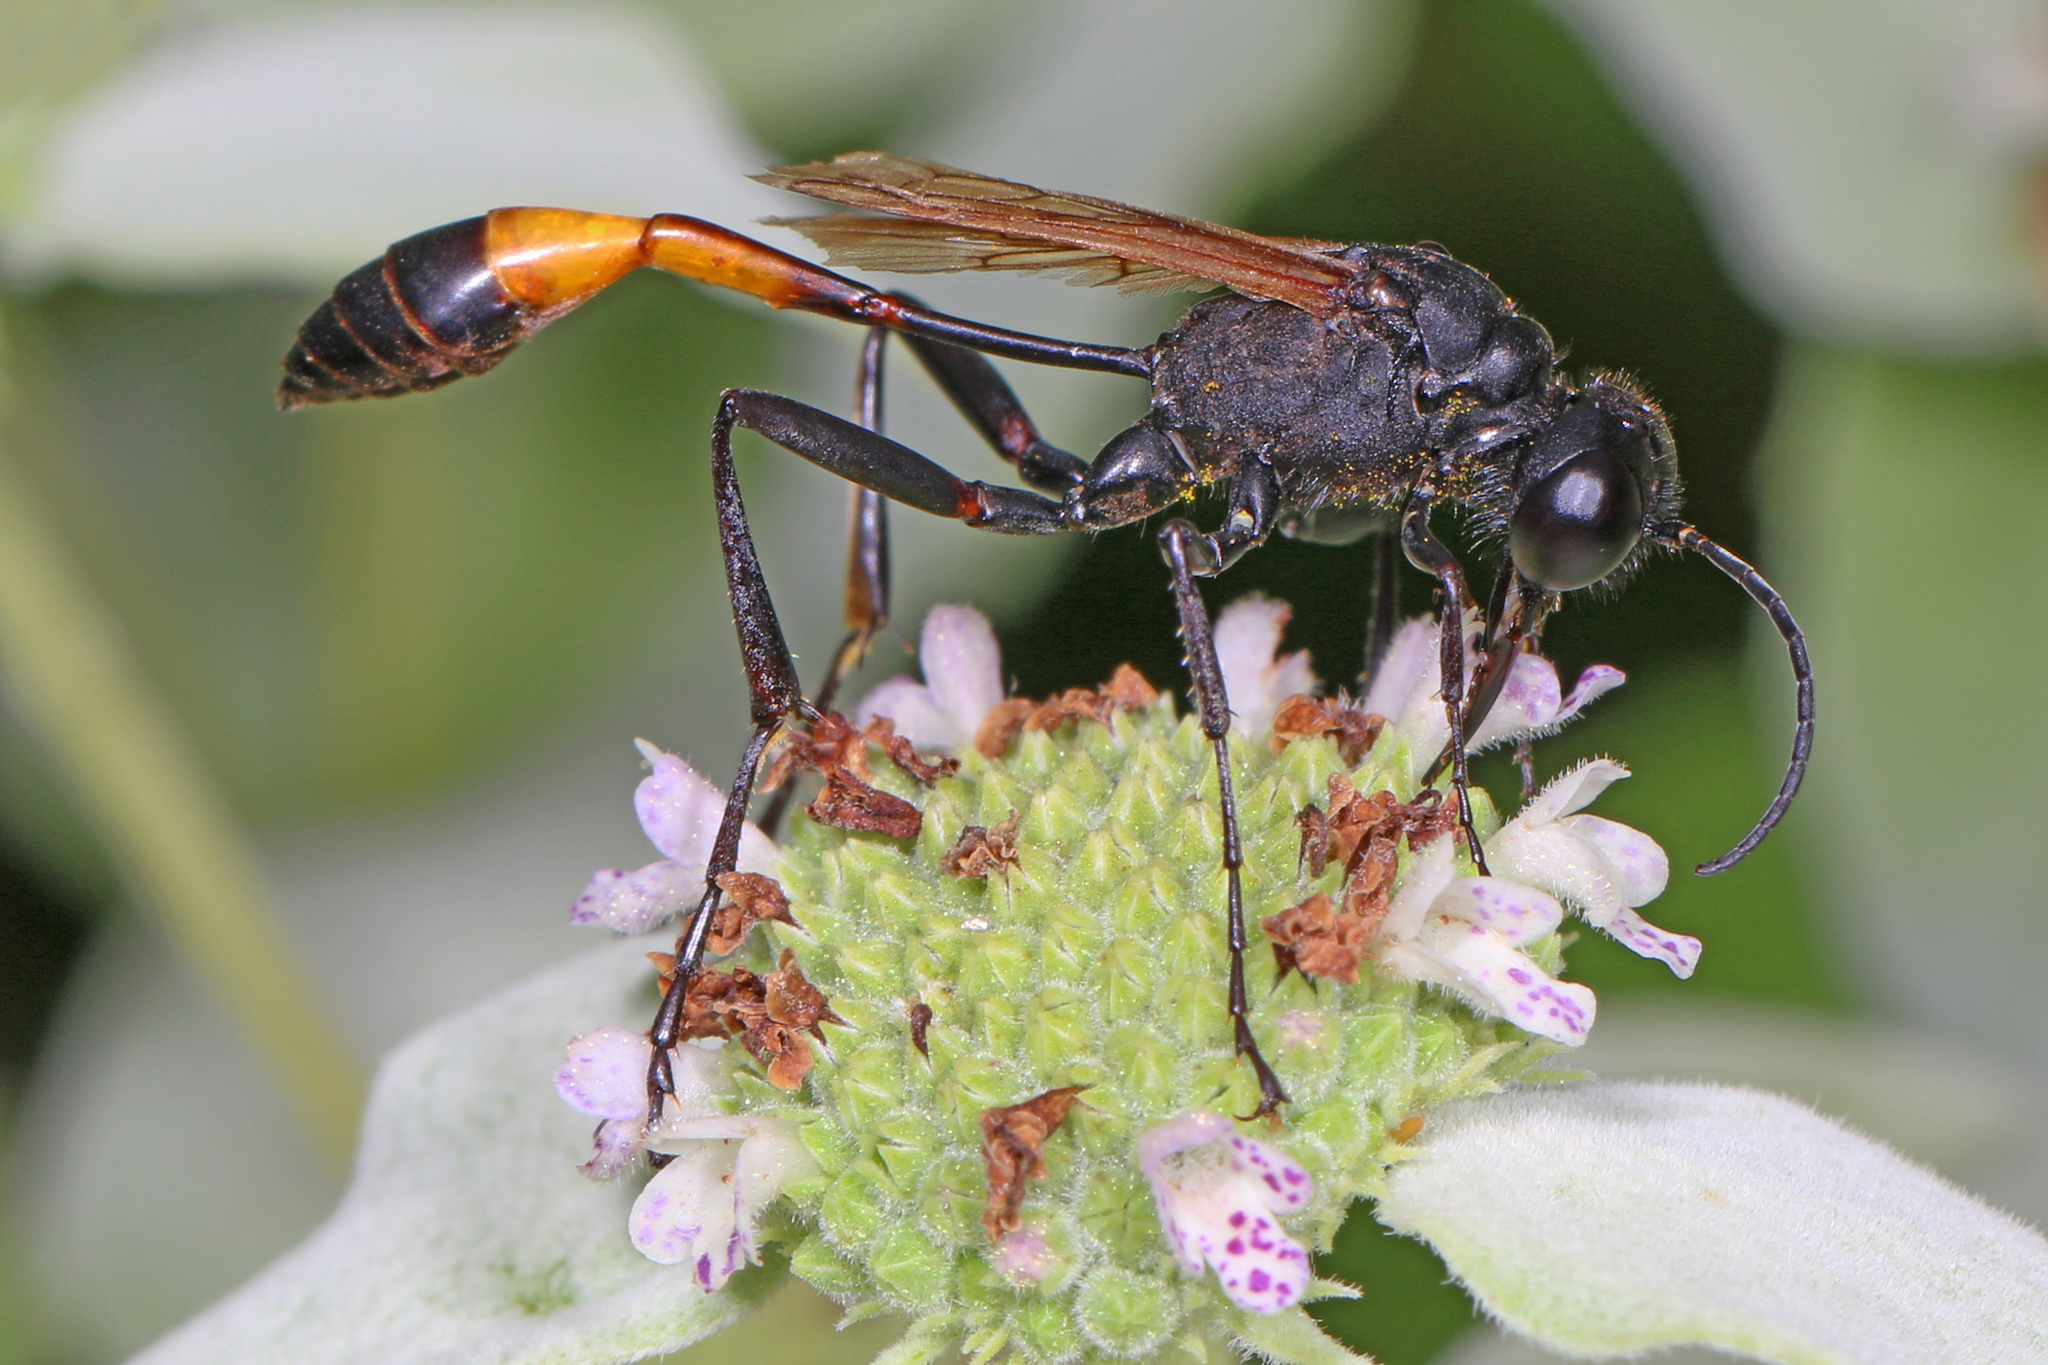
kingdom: Animalia
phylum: Arthropoda
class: Insecta
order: Hymenoptera
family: Sphecidae
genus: Ammophila
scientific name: Ammophila pictipennis
